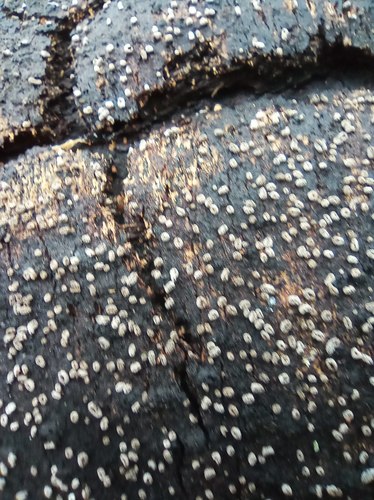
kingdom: Fungi
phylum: Ascomycota
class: Leotiomycetes
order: Helotiales
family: Sclerotiniaceae
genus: Sclerencoelia
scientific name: Sclerencoelia pruinosa
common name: Sooty-bark canker
